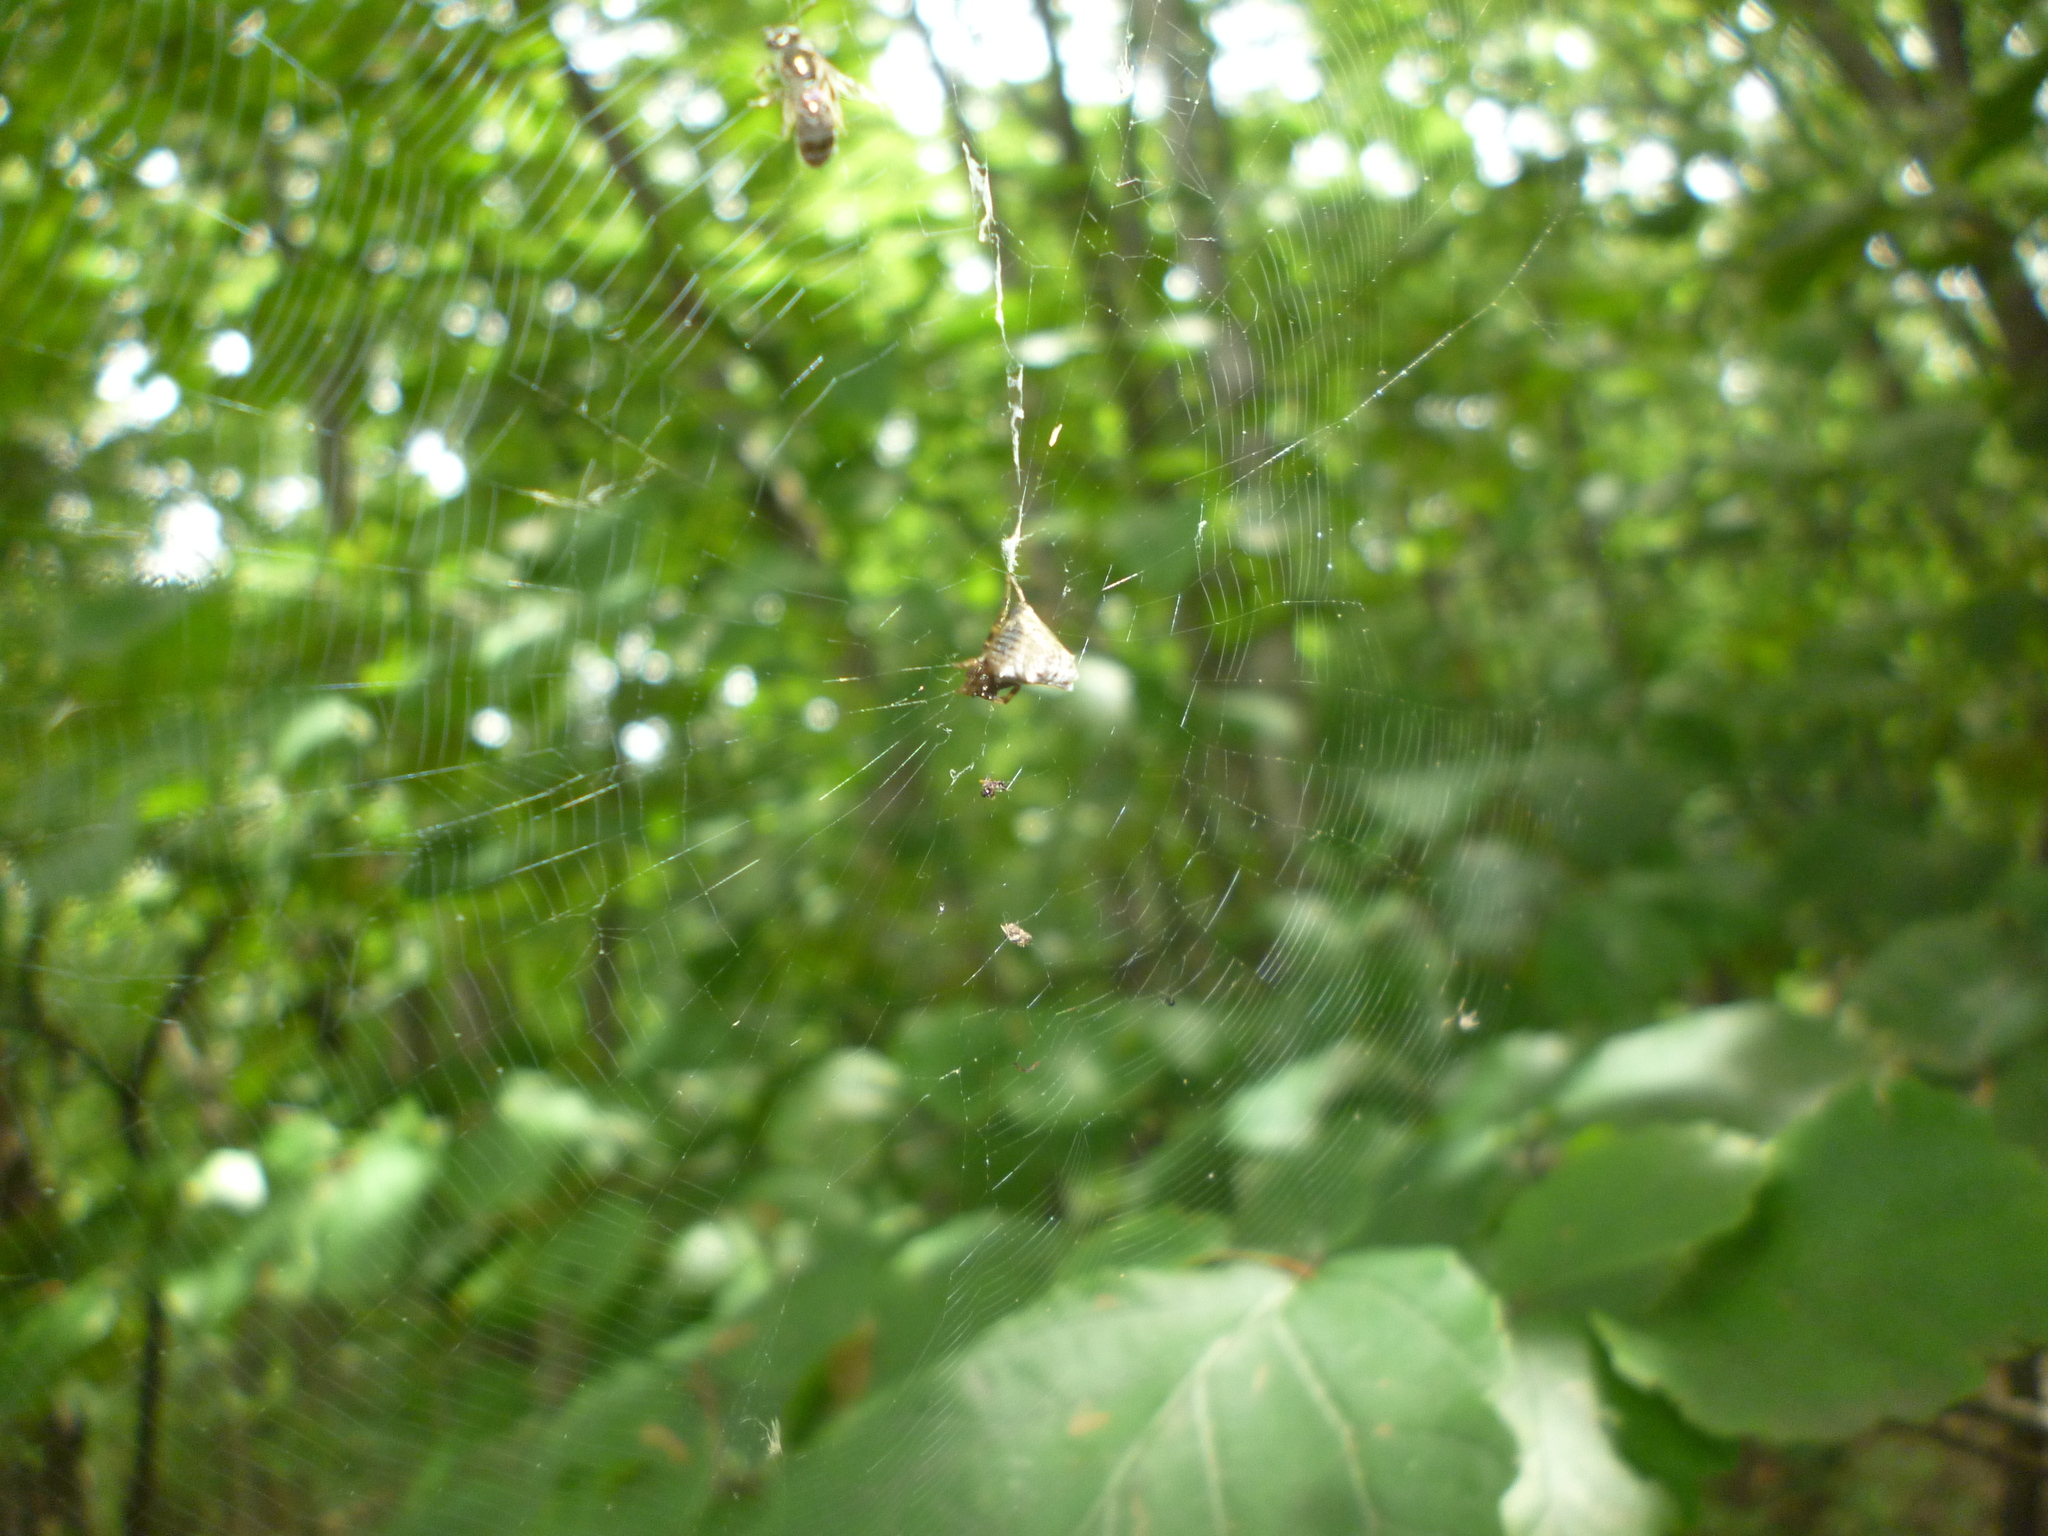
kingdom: Animalia
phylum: Arthropoda
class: Arachnida
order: Araneae
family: Araneidae
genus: Micrathena
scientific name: Micrathena gracilis
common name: Orb weavers
